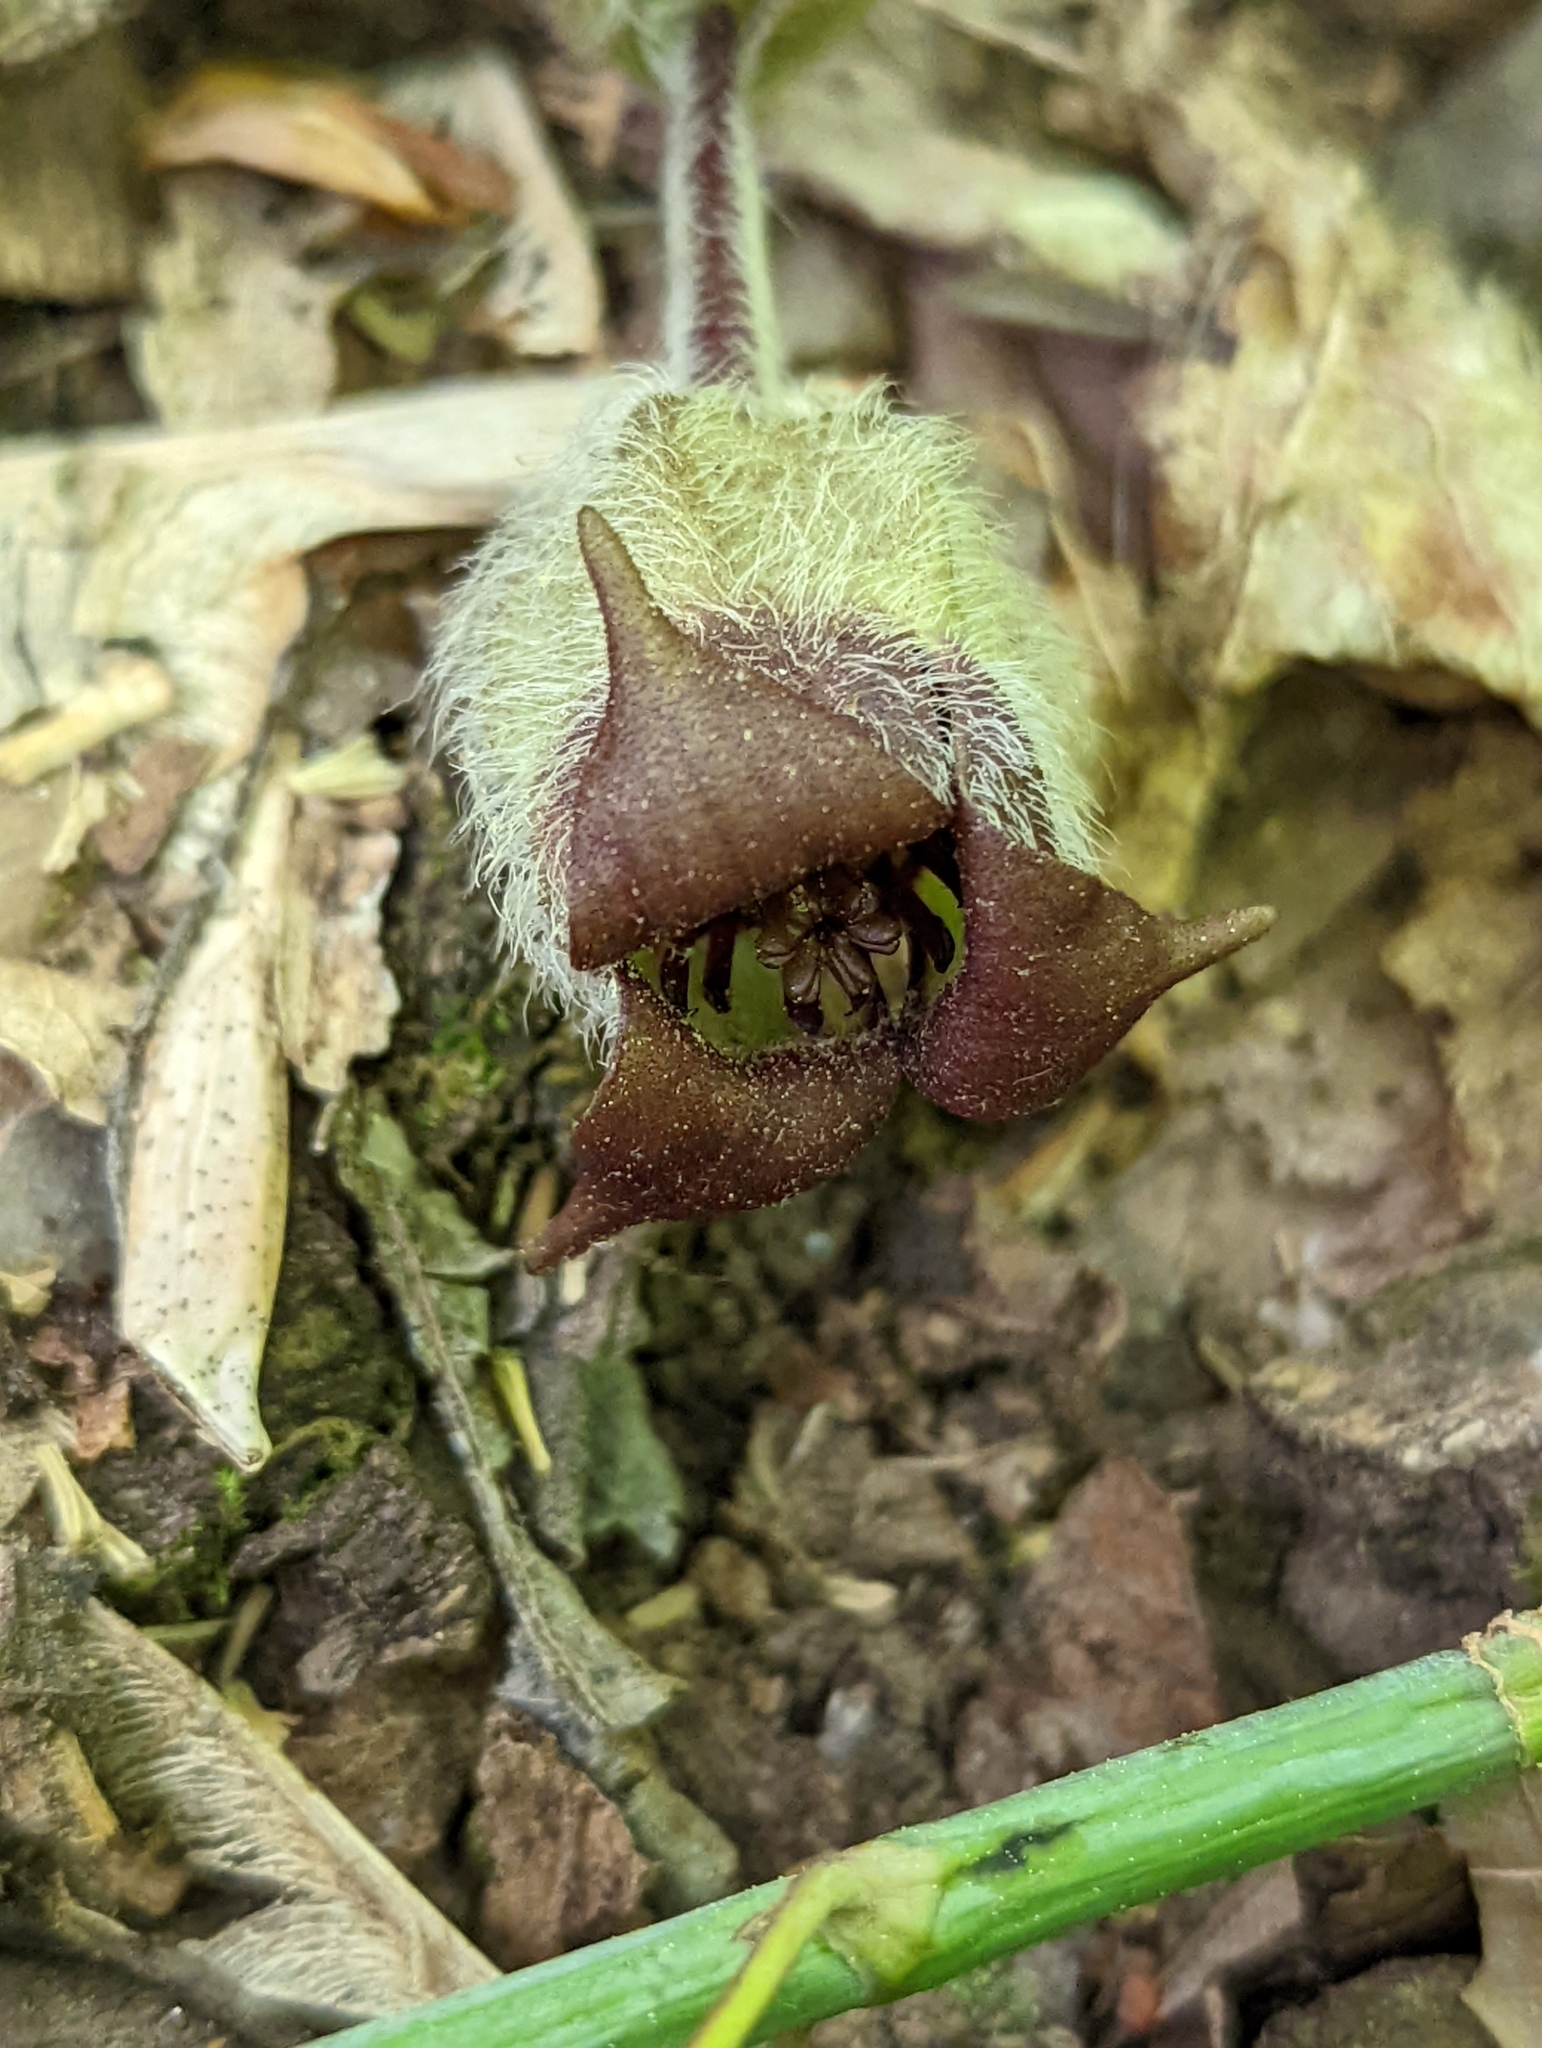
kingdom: Plantae
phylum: Tracheophyta
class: Magnoliopsida
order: Piperales
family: Aristolochiaceae
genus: Asarum
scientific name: Asarum canadense
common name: Wild ginger
